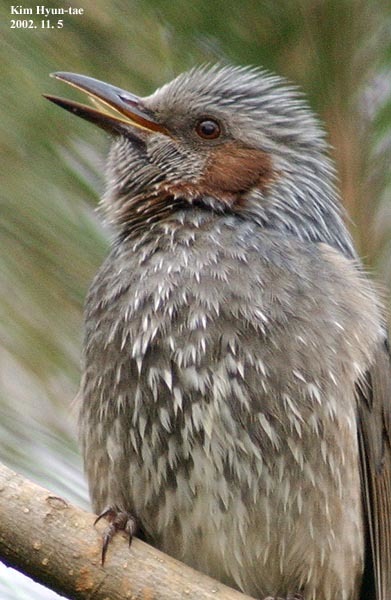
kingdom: Animalia
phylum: Chordata
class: Aves
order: Passeriformes
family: Pycnonotidae
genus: Hypsipetes
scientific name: Hypsipetes amaurotis
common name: Brown-eared bulbul
